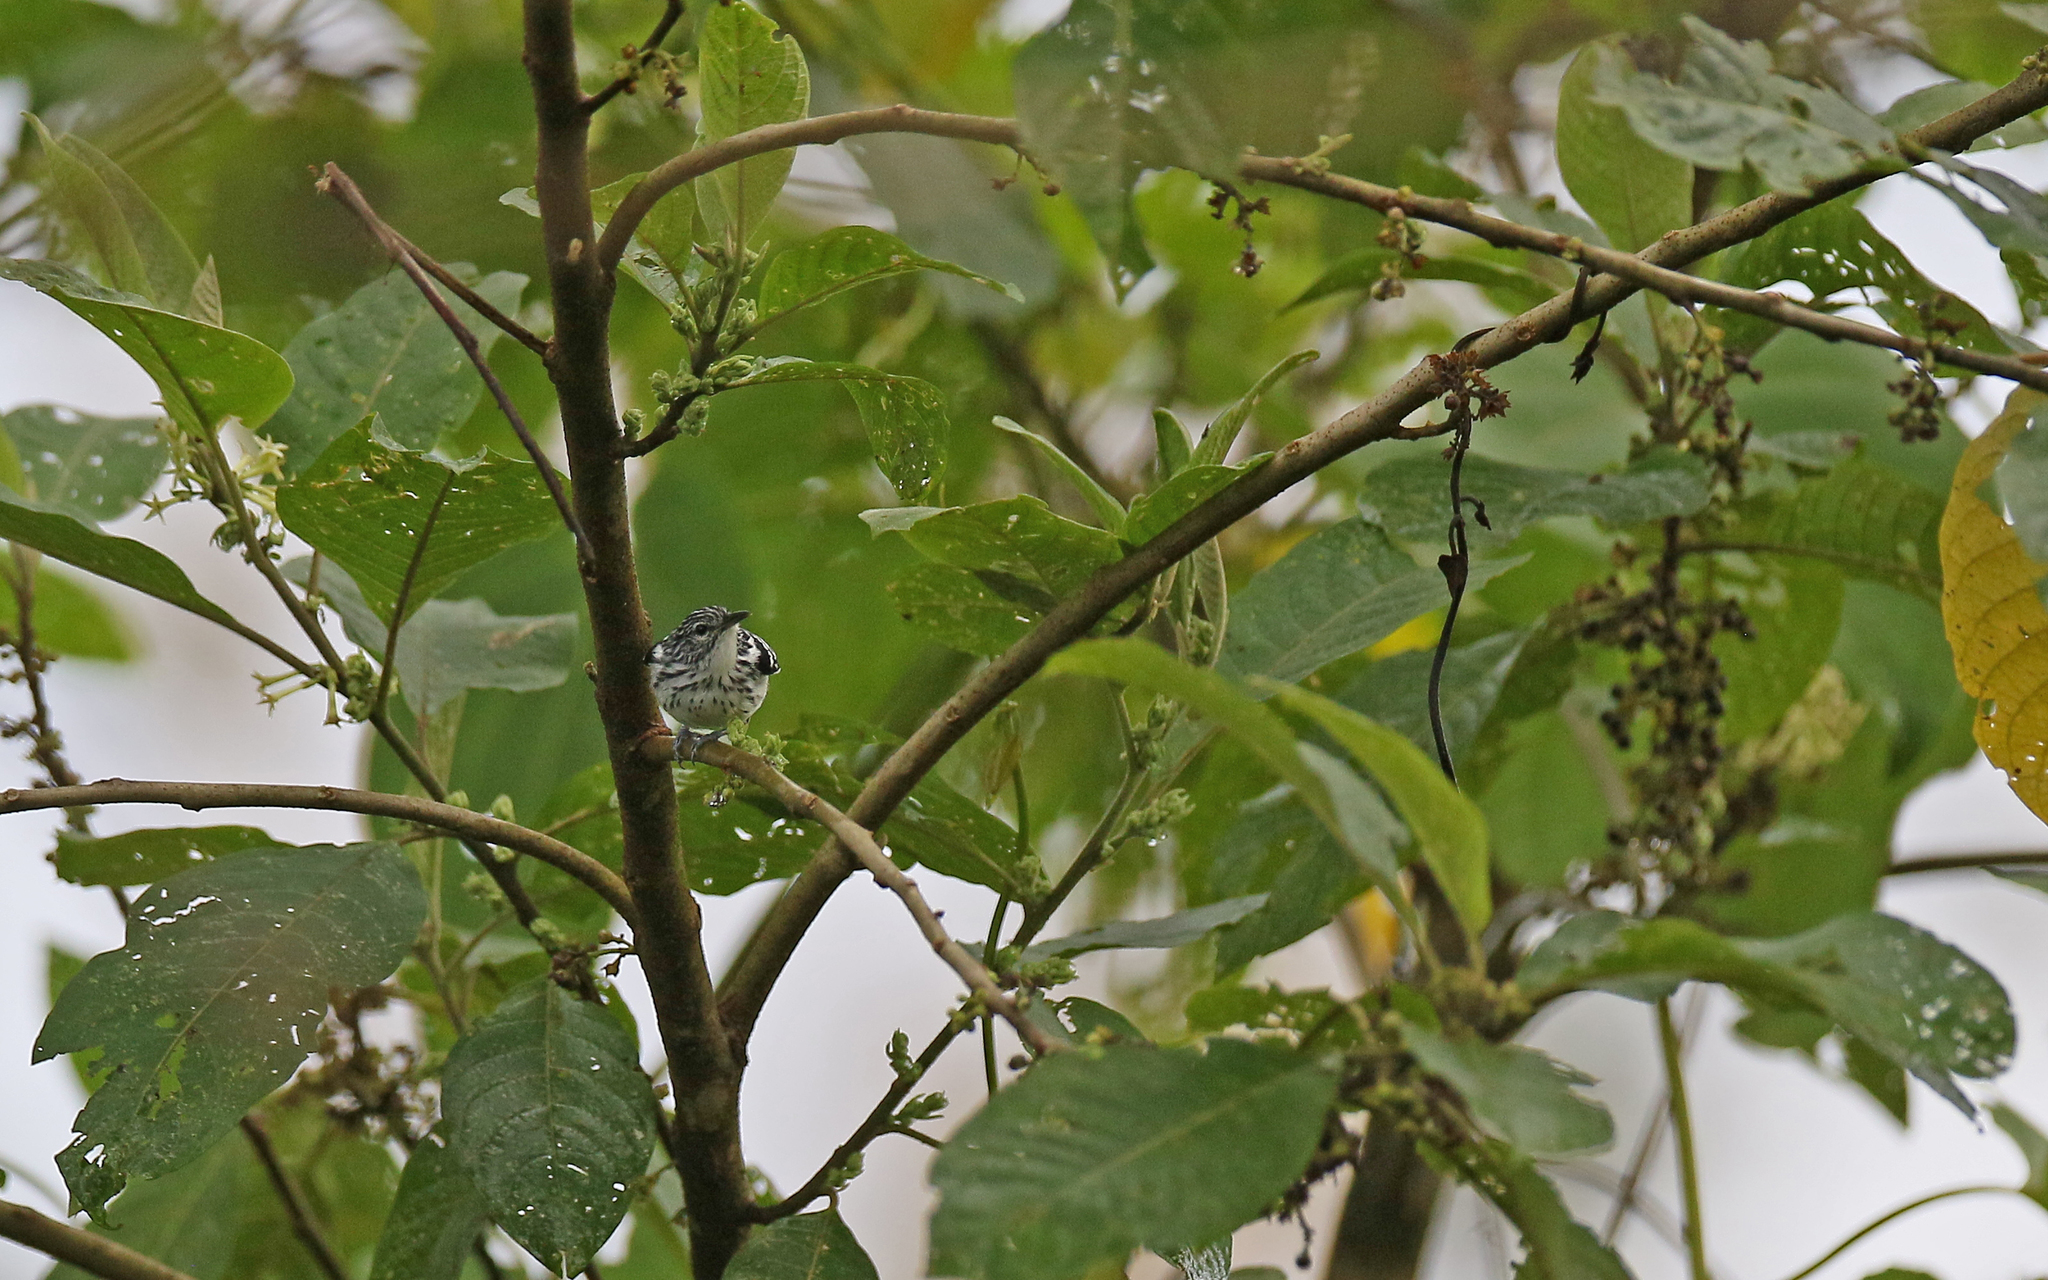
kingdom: Animalia
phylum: Chordata
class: Aves
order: Passeriformes
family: Thamnophilidae
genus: Myrmotherula
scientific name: Myrmotherula longicauda
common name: Stripe-chested antwren
